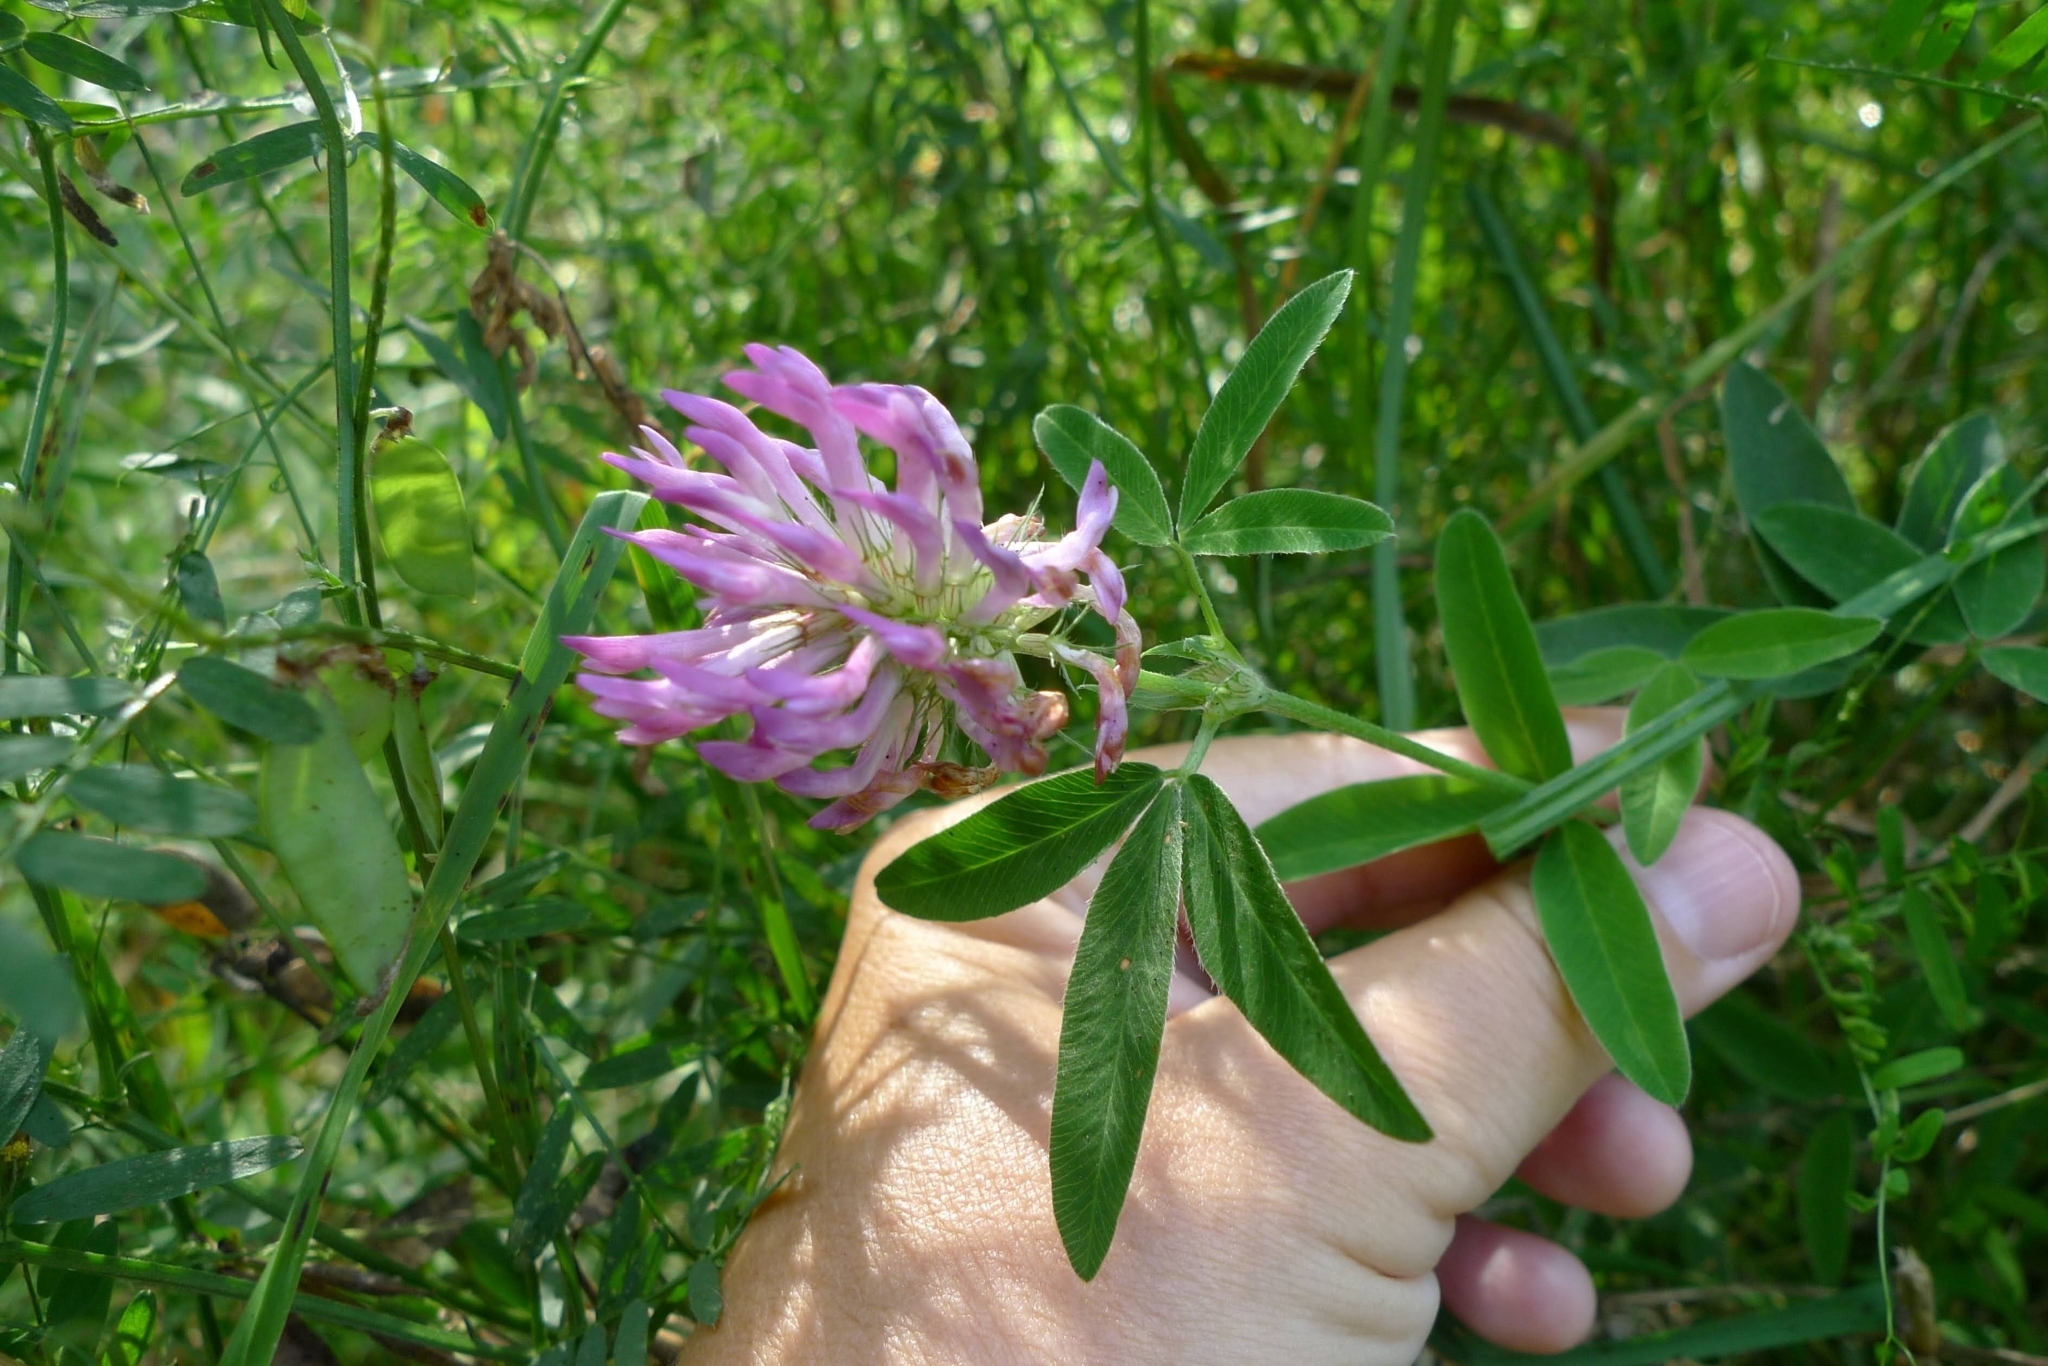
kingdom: Plantae
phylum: Tracheophyta
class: Magnoliopsida
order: Fabales
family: Fabaceae
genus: Trifolium
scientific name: Trifolium medium
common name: Zigzag clover
